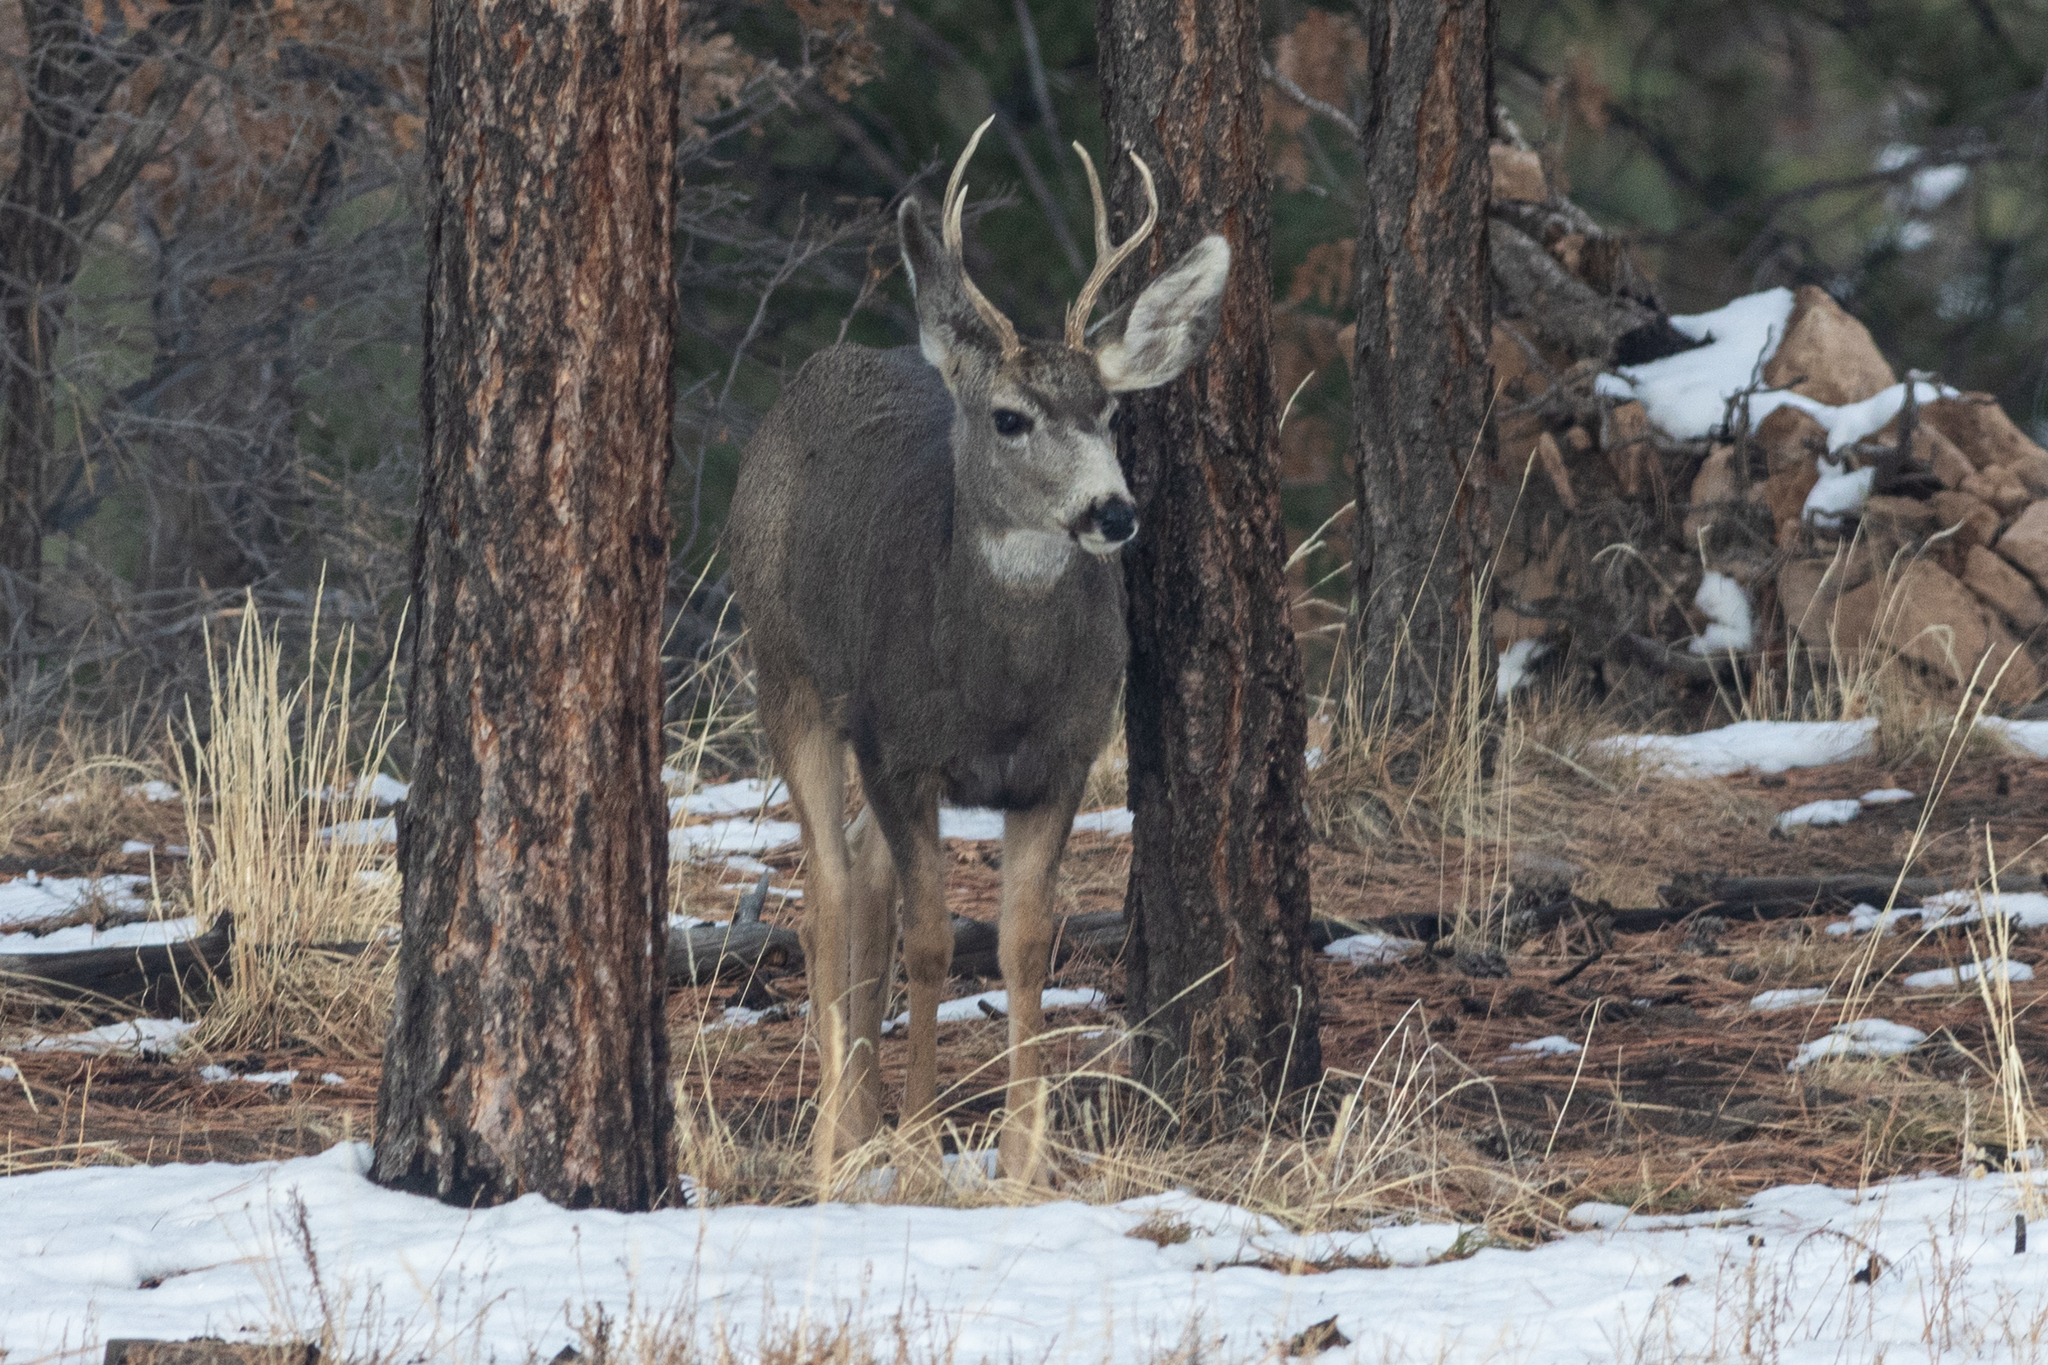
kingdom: Animalia
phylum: Chordata
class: Mammalia
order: Artiodactyla
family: Cervidae
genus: Odocoileus
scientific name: Odocoileus hemionus
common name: Mule deer
